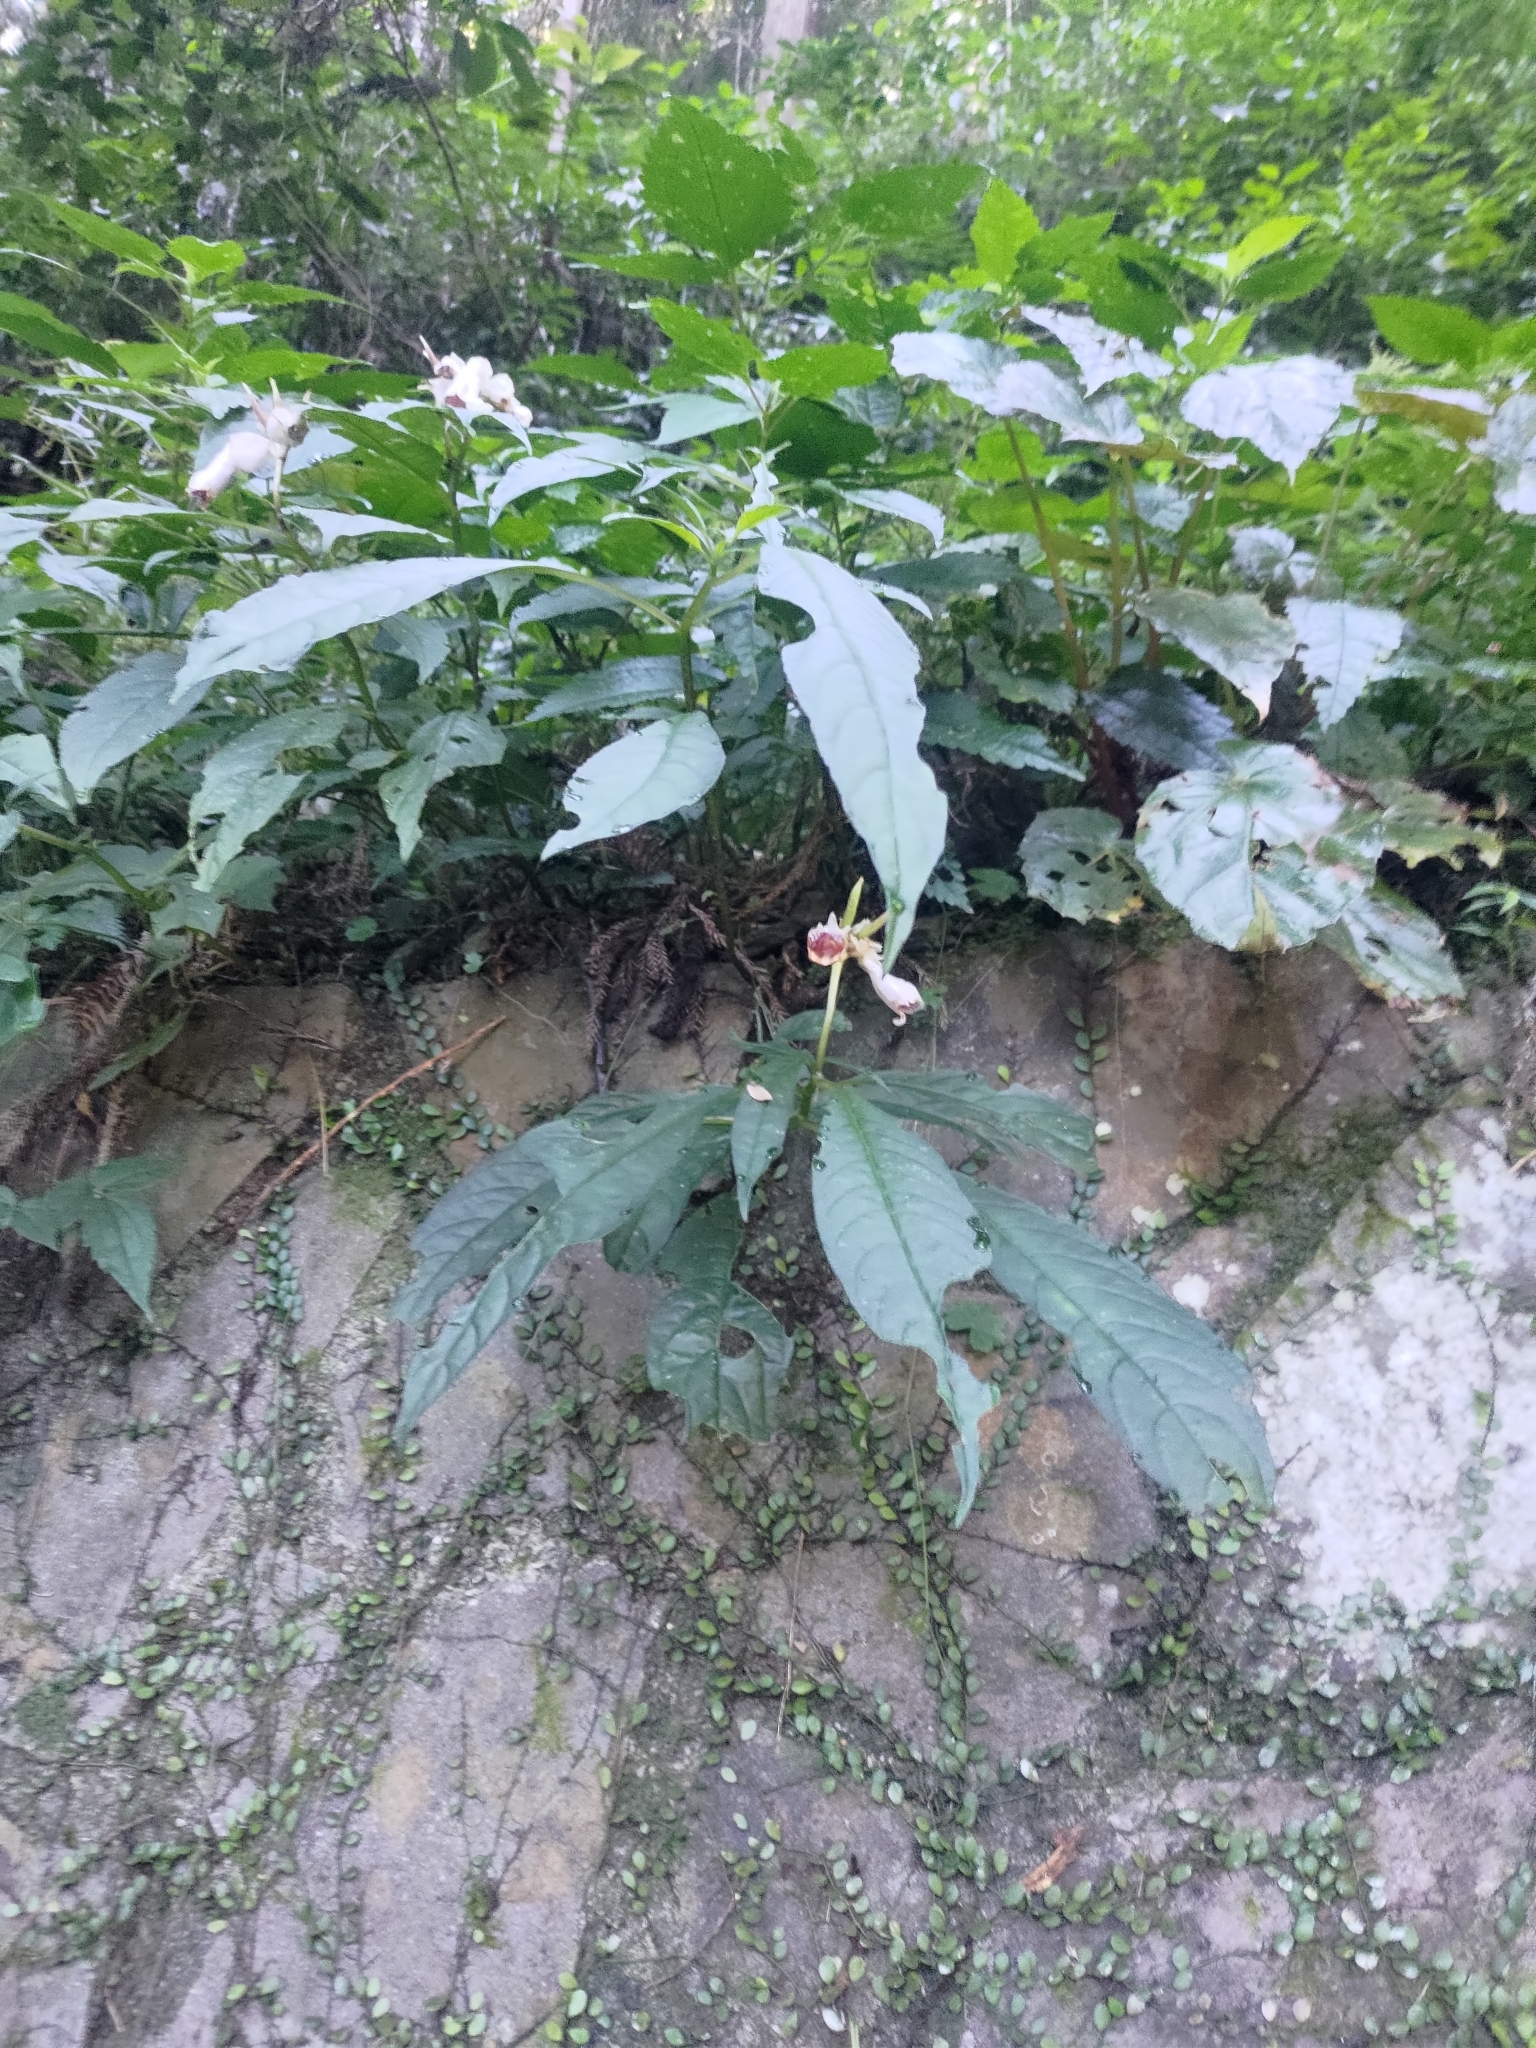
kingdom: Plantae
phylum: Tracheophyta
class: Magnoliopsida
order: Lamiales
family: Gesneriaceae
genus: Hemiboea
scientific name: Hemiboea bicornuta
